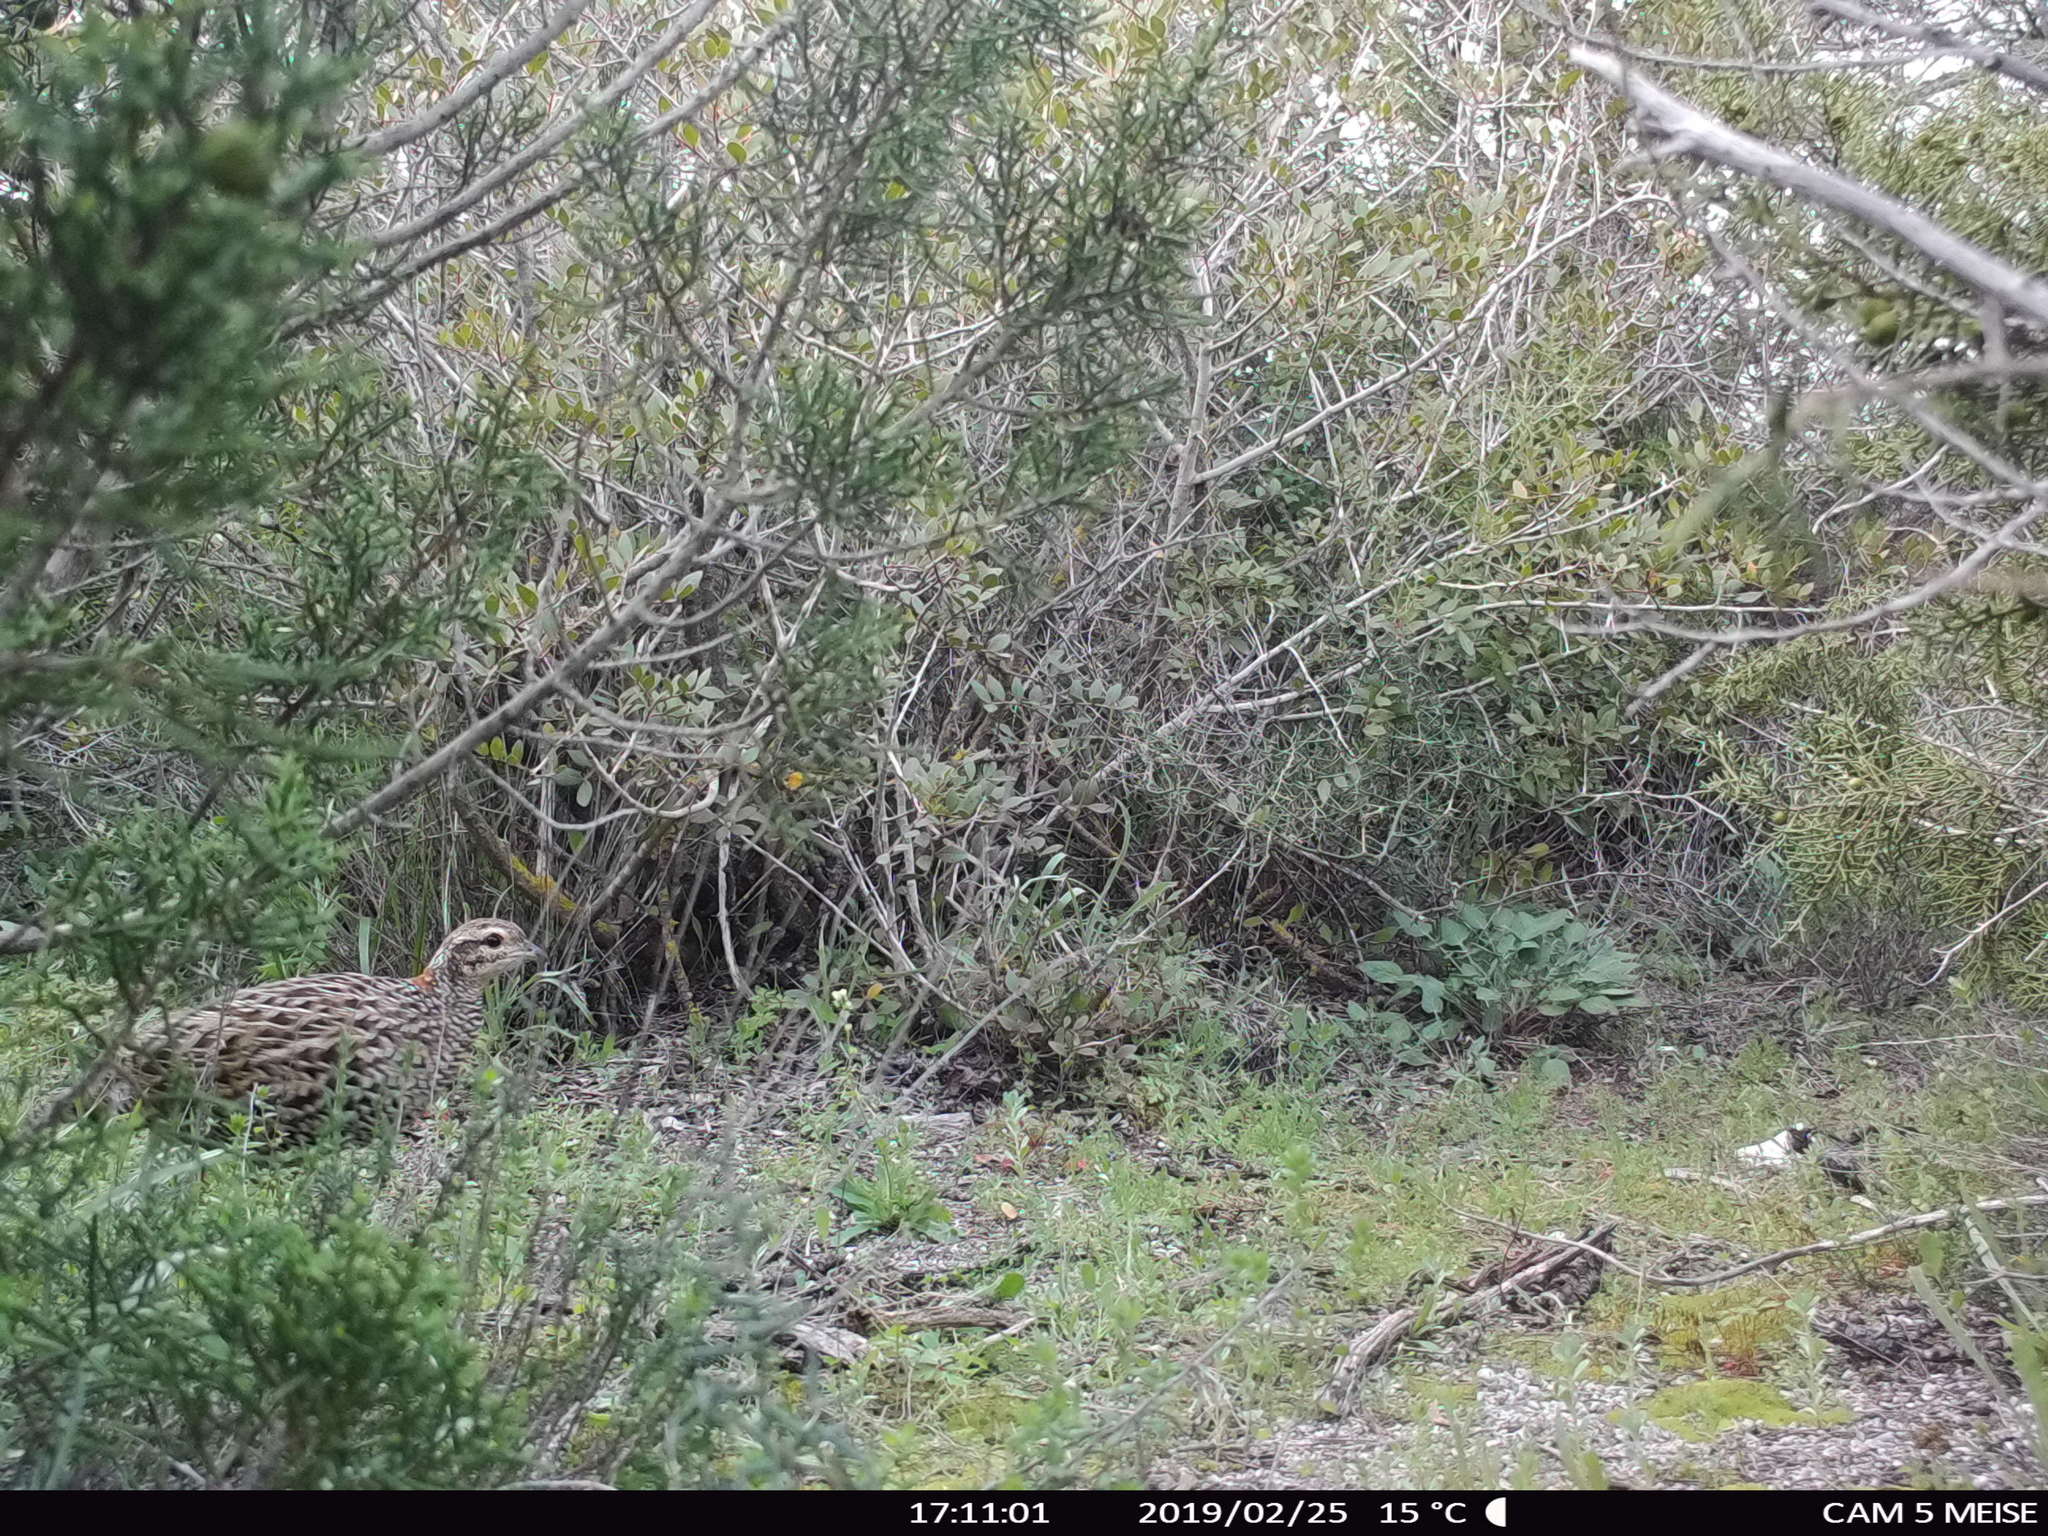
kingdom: Animalia
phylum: Chordata
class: Aves
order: Galliformes
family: Phasianidae
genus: Francolinus
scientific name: Francolinus francolinus
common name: Black francolin
